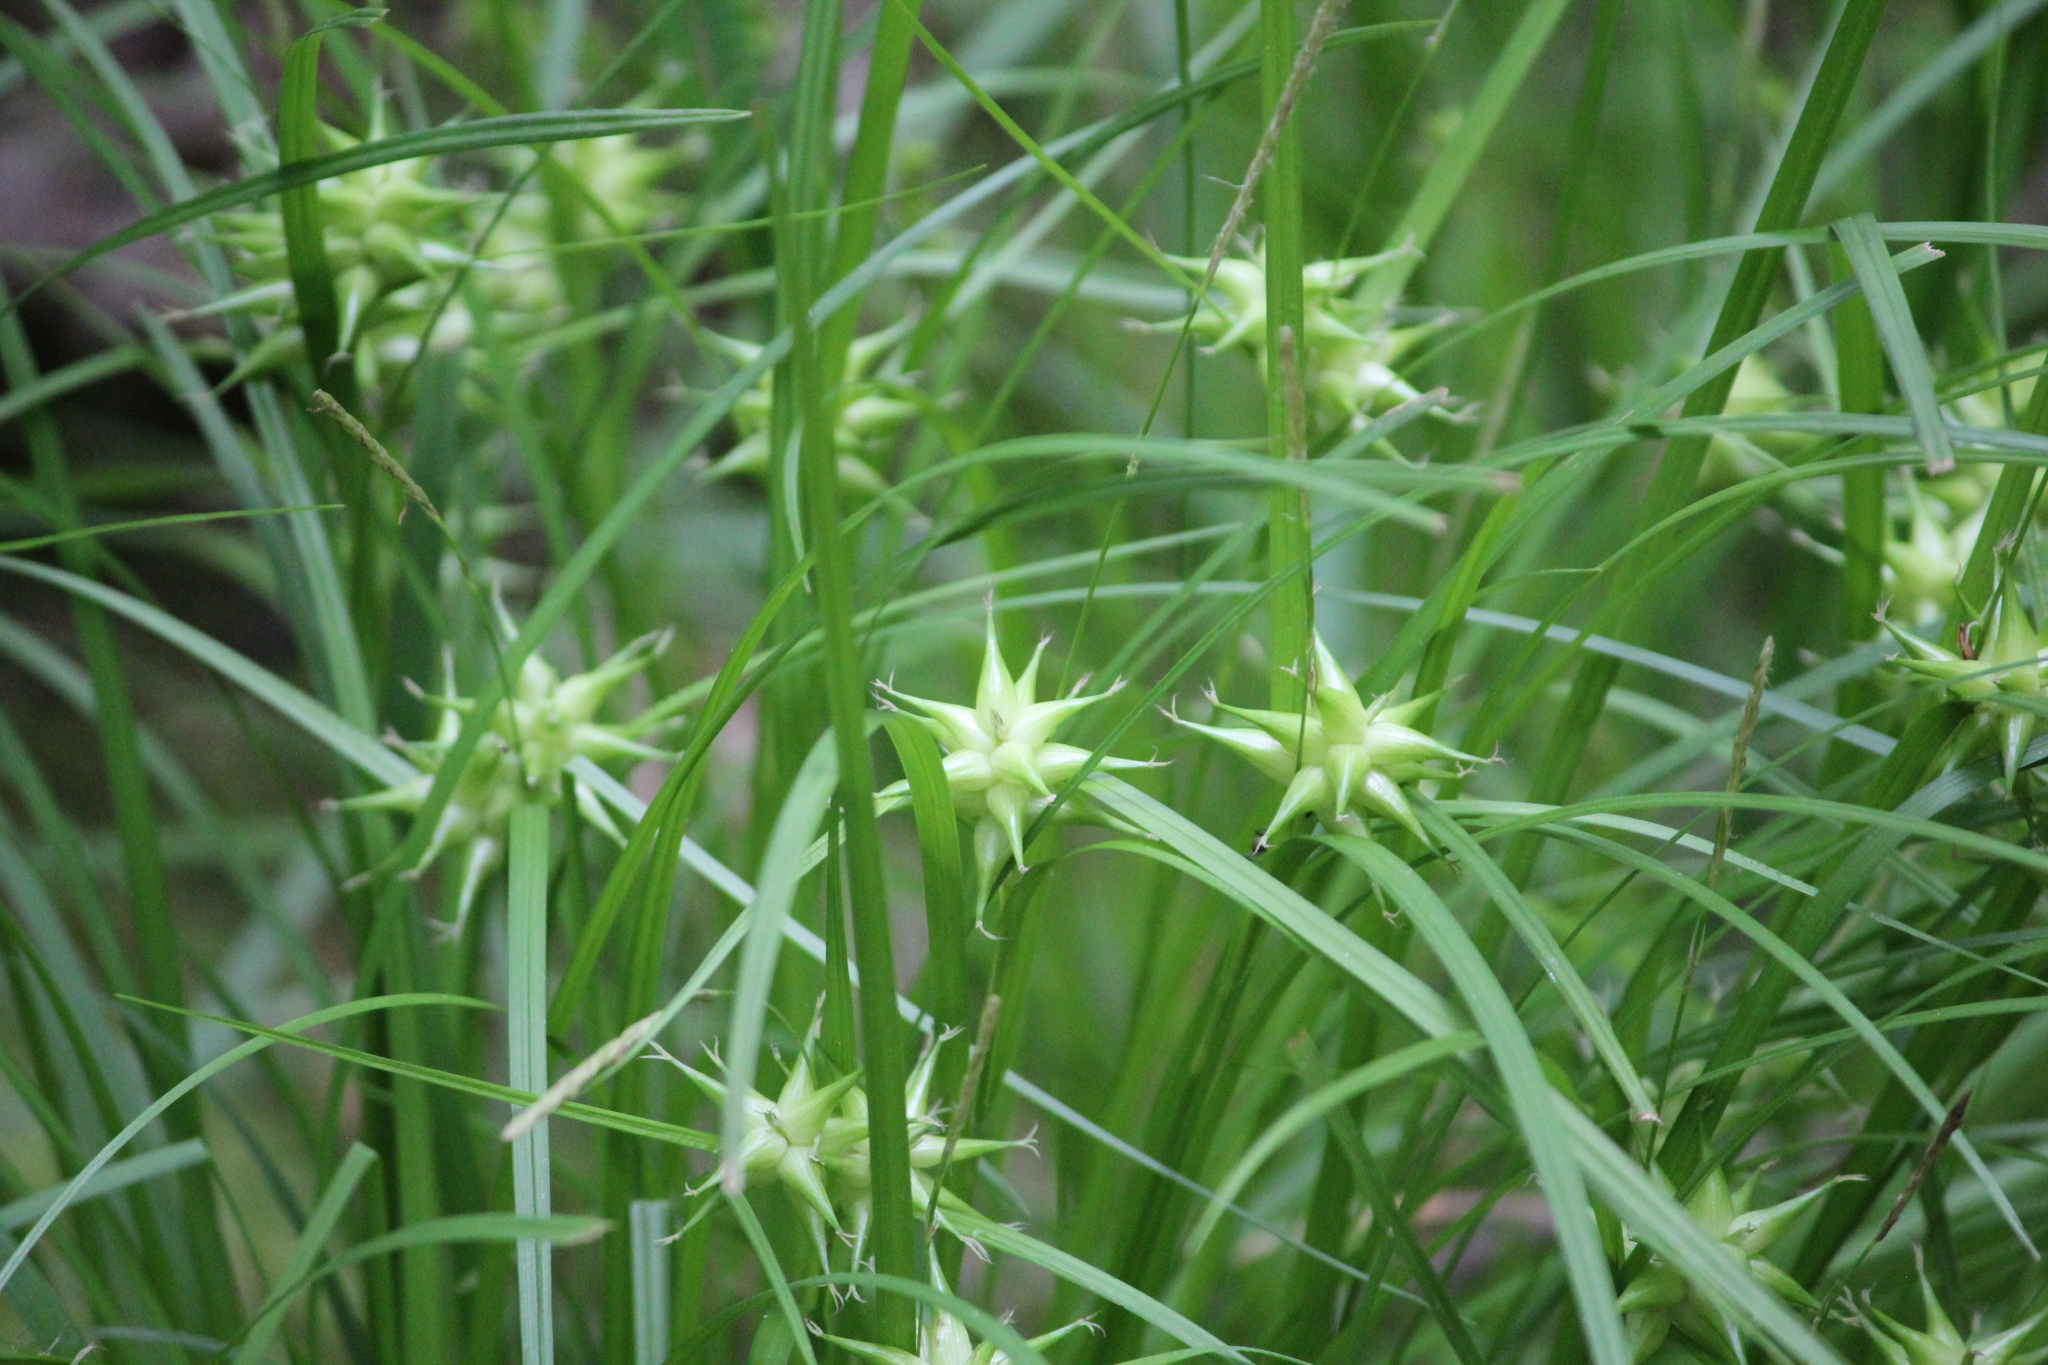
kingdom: Plantae
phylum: Tracheophyta
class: Liliopsida
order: Poales
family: Cyperaceae
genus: Carex
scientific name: Carex grayi
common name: Asa gray's sedge
